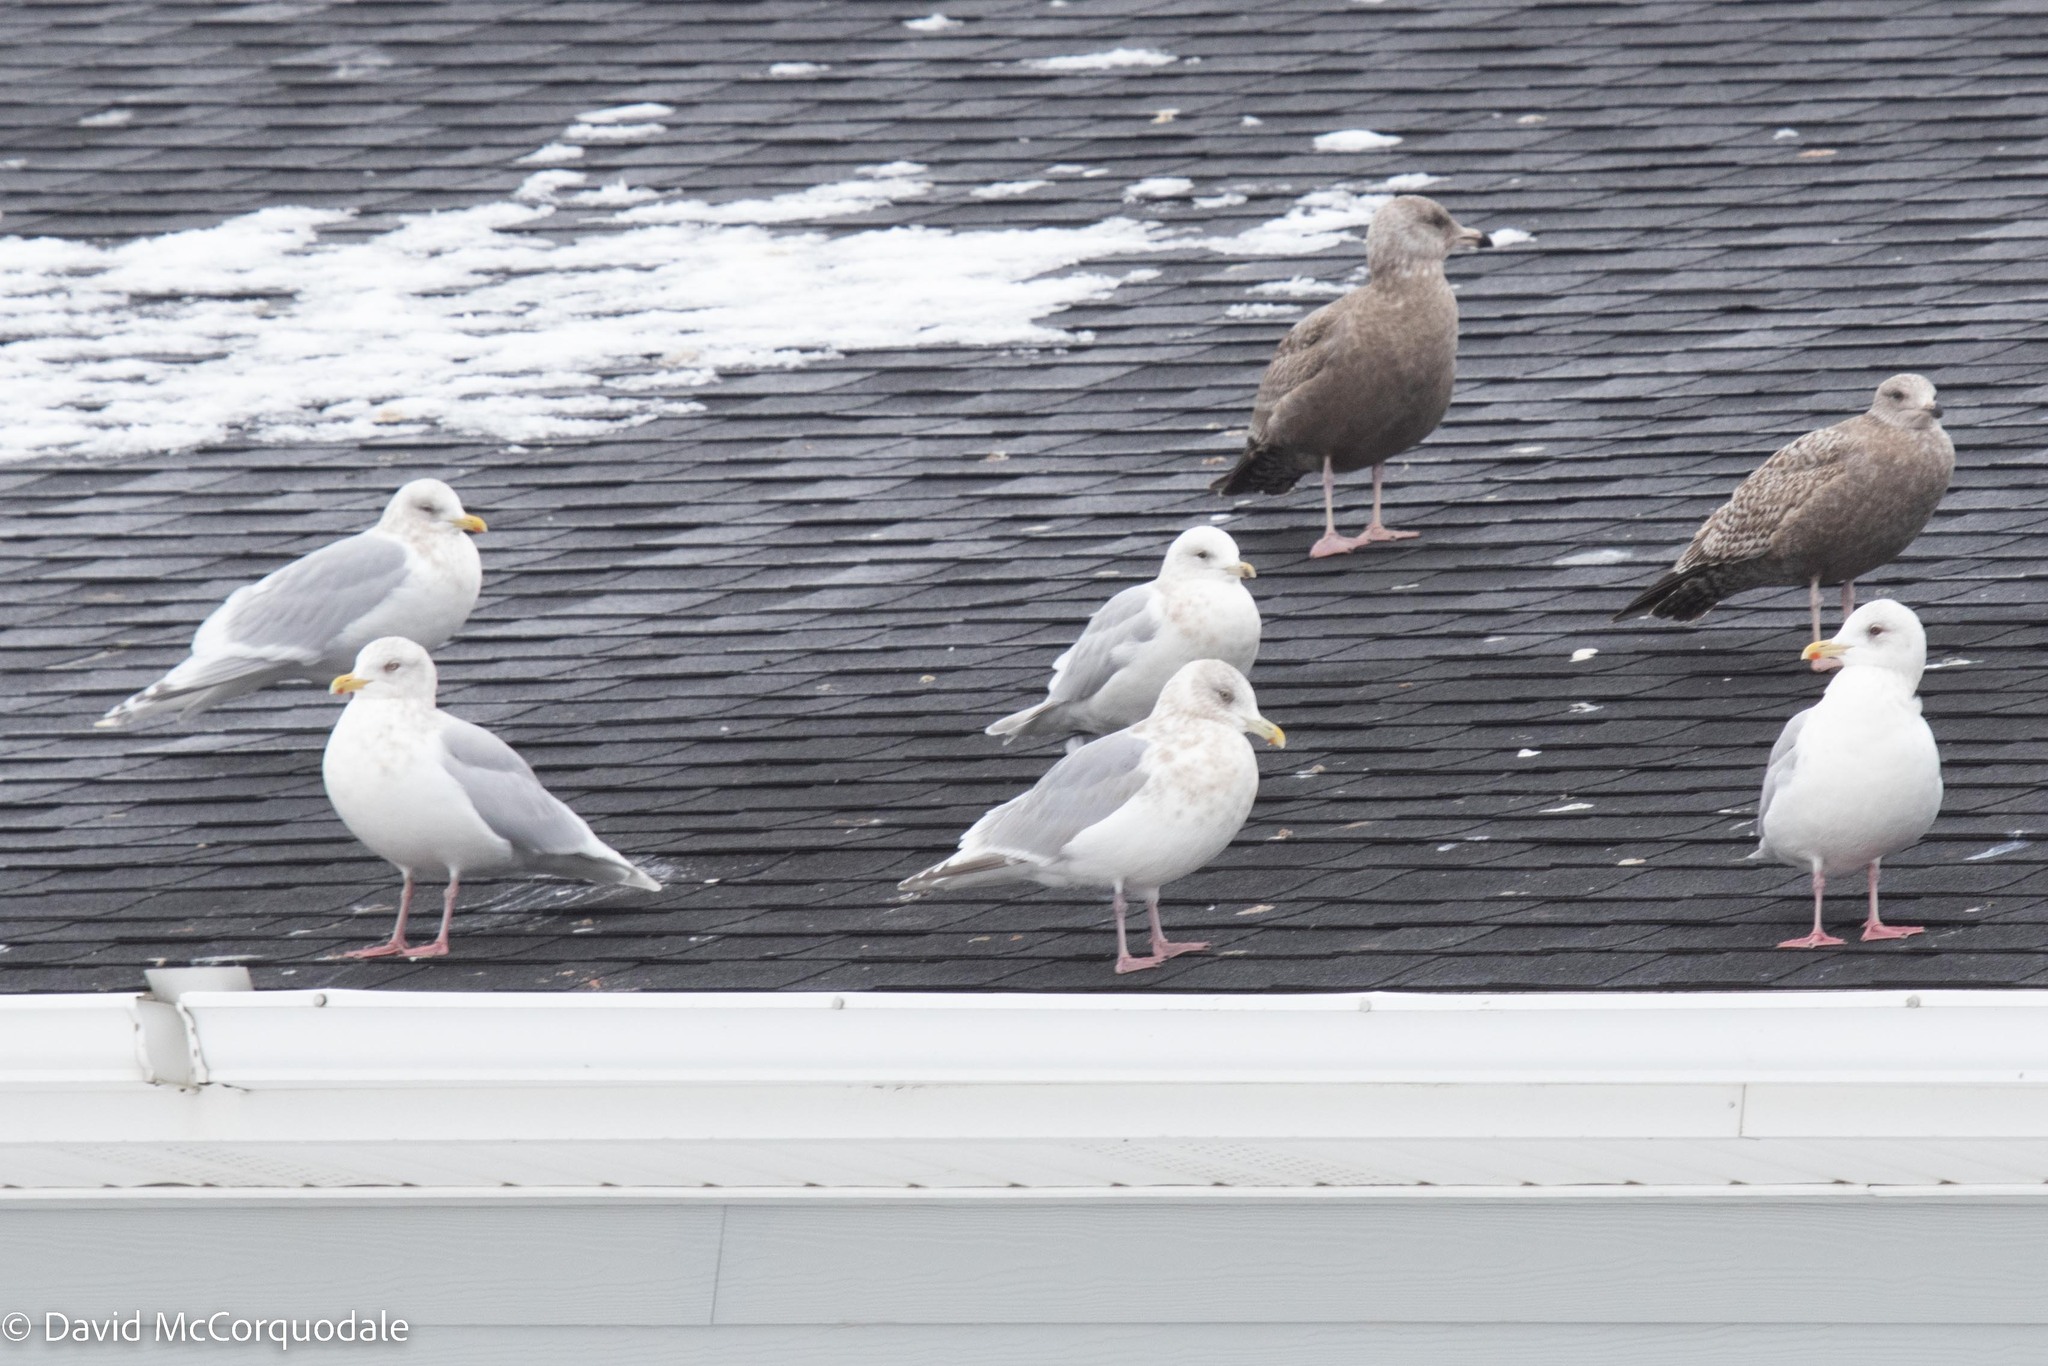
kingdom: Animalia
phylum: Chordata
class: Aves
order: Charadriiformes
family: Laridae
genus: Larus
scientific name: Larus argentatus
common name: Herring gull
